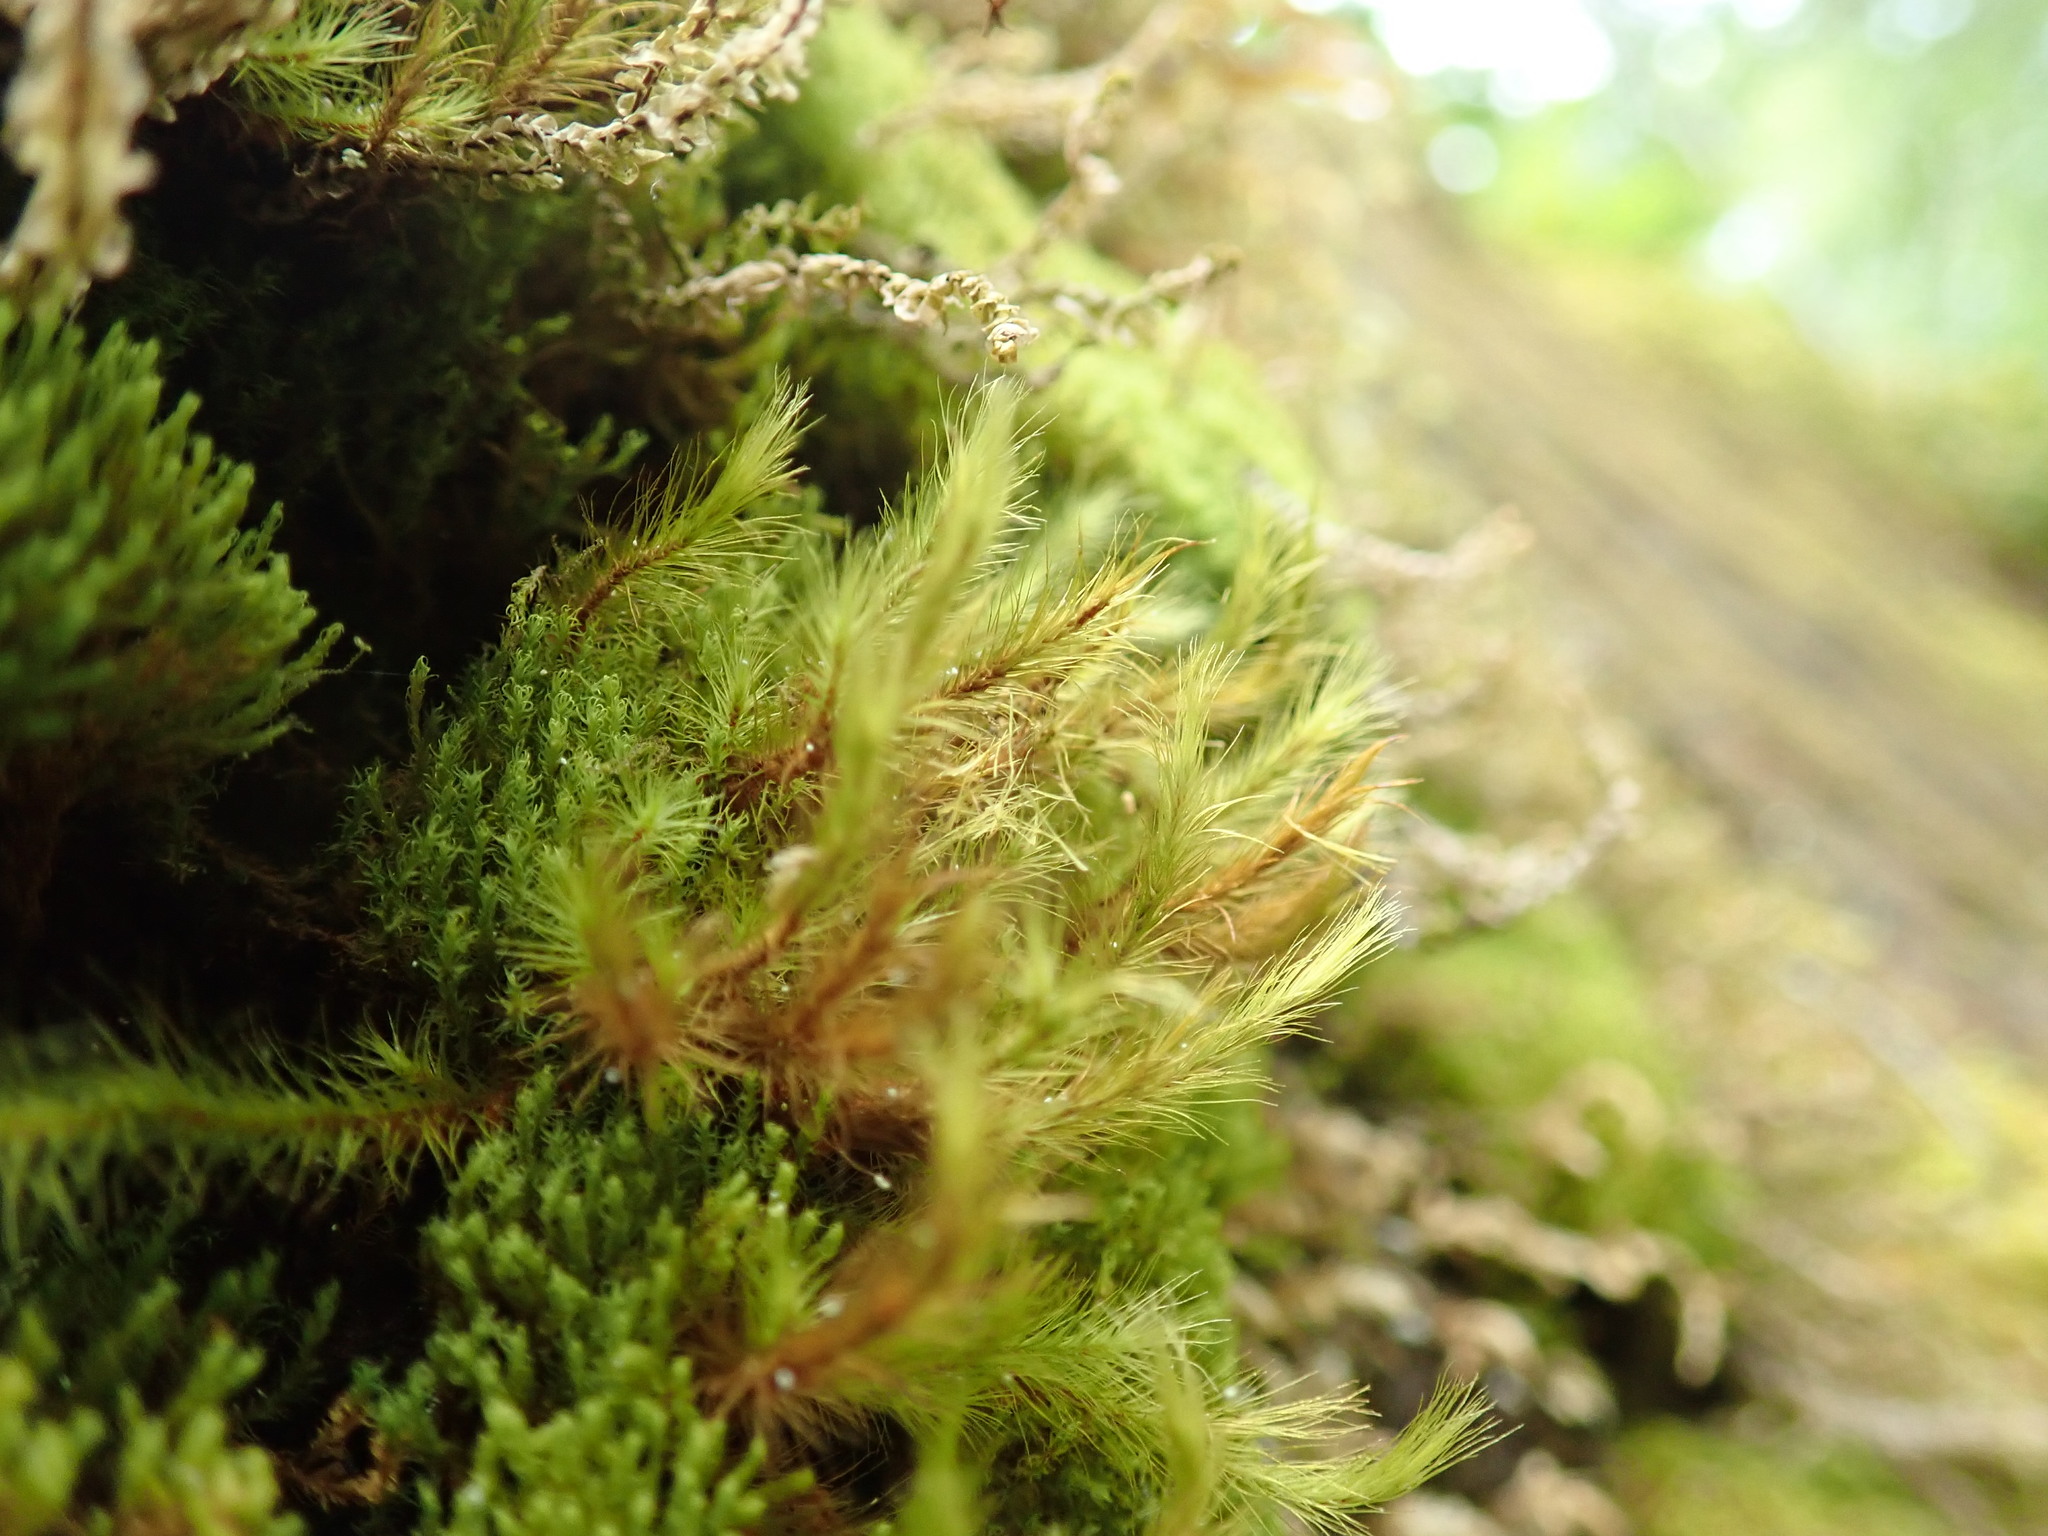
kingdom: Plantae
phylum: Bryophyta
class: Bryopsida
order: Bartramiales
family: Bartramiaceae
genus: Anacolia
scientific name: Anacolia menziesii
